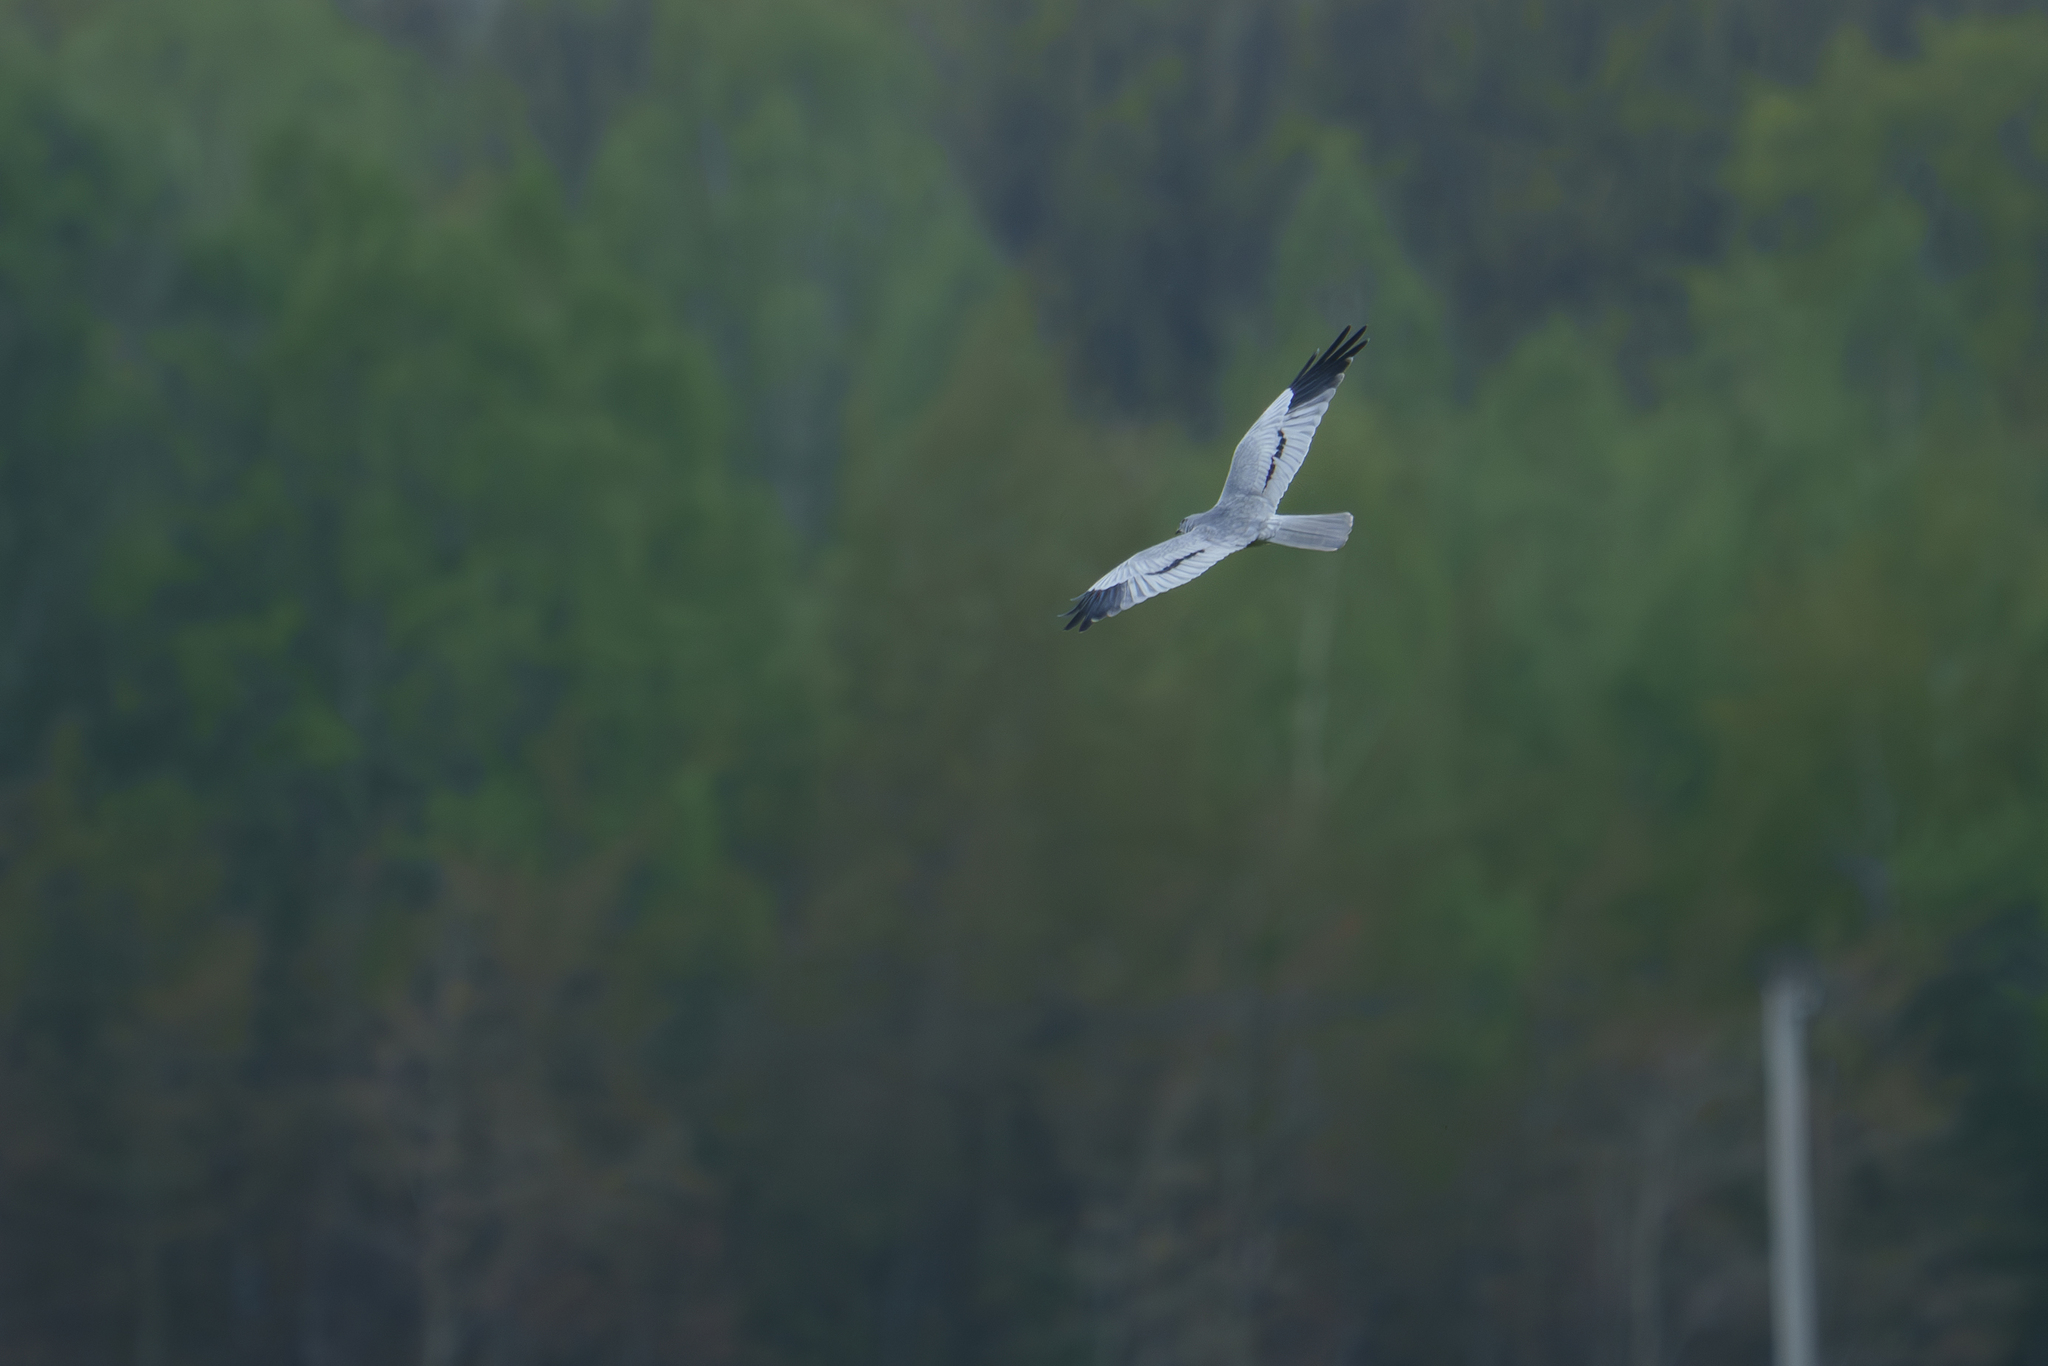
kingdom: Animalia
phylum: Chordata
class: Aves
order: Accipitriformes
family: Accipitridae
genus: Circus
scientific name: Circus pygargus
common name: Montagu's harrier
